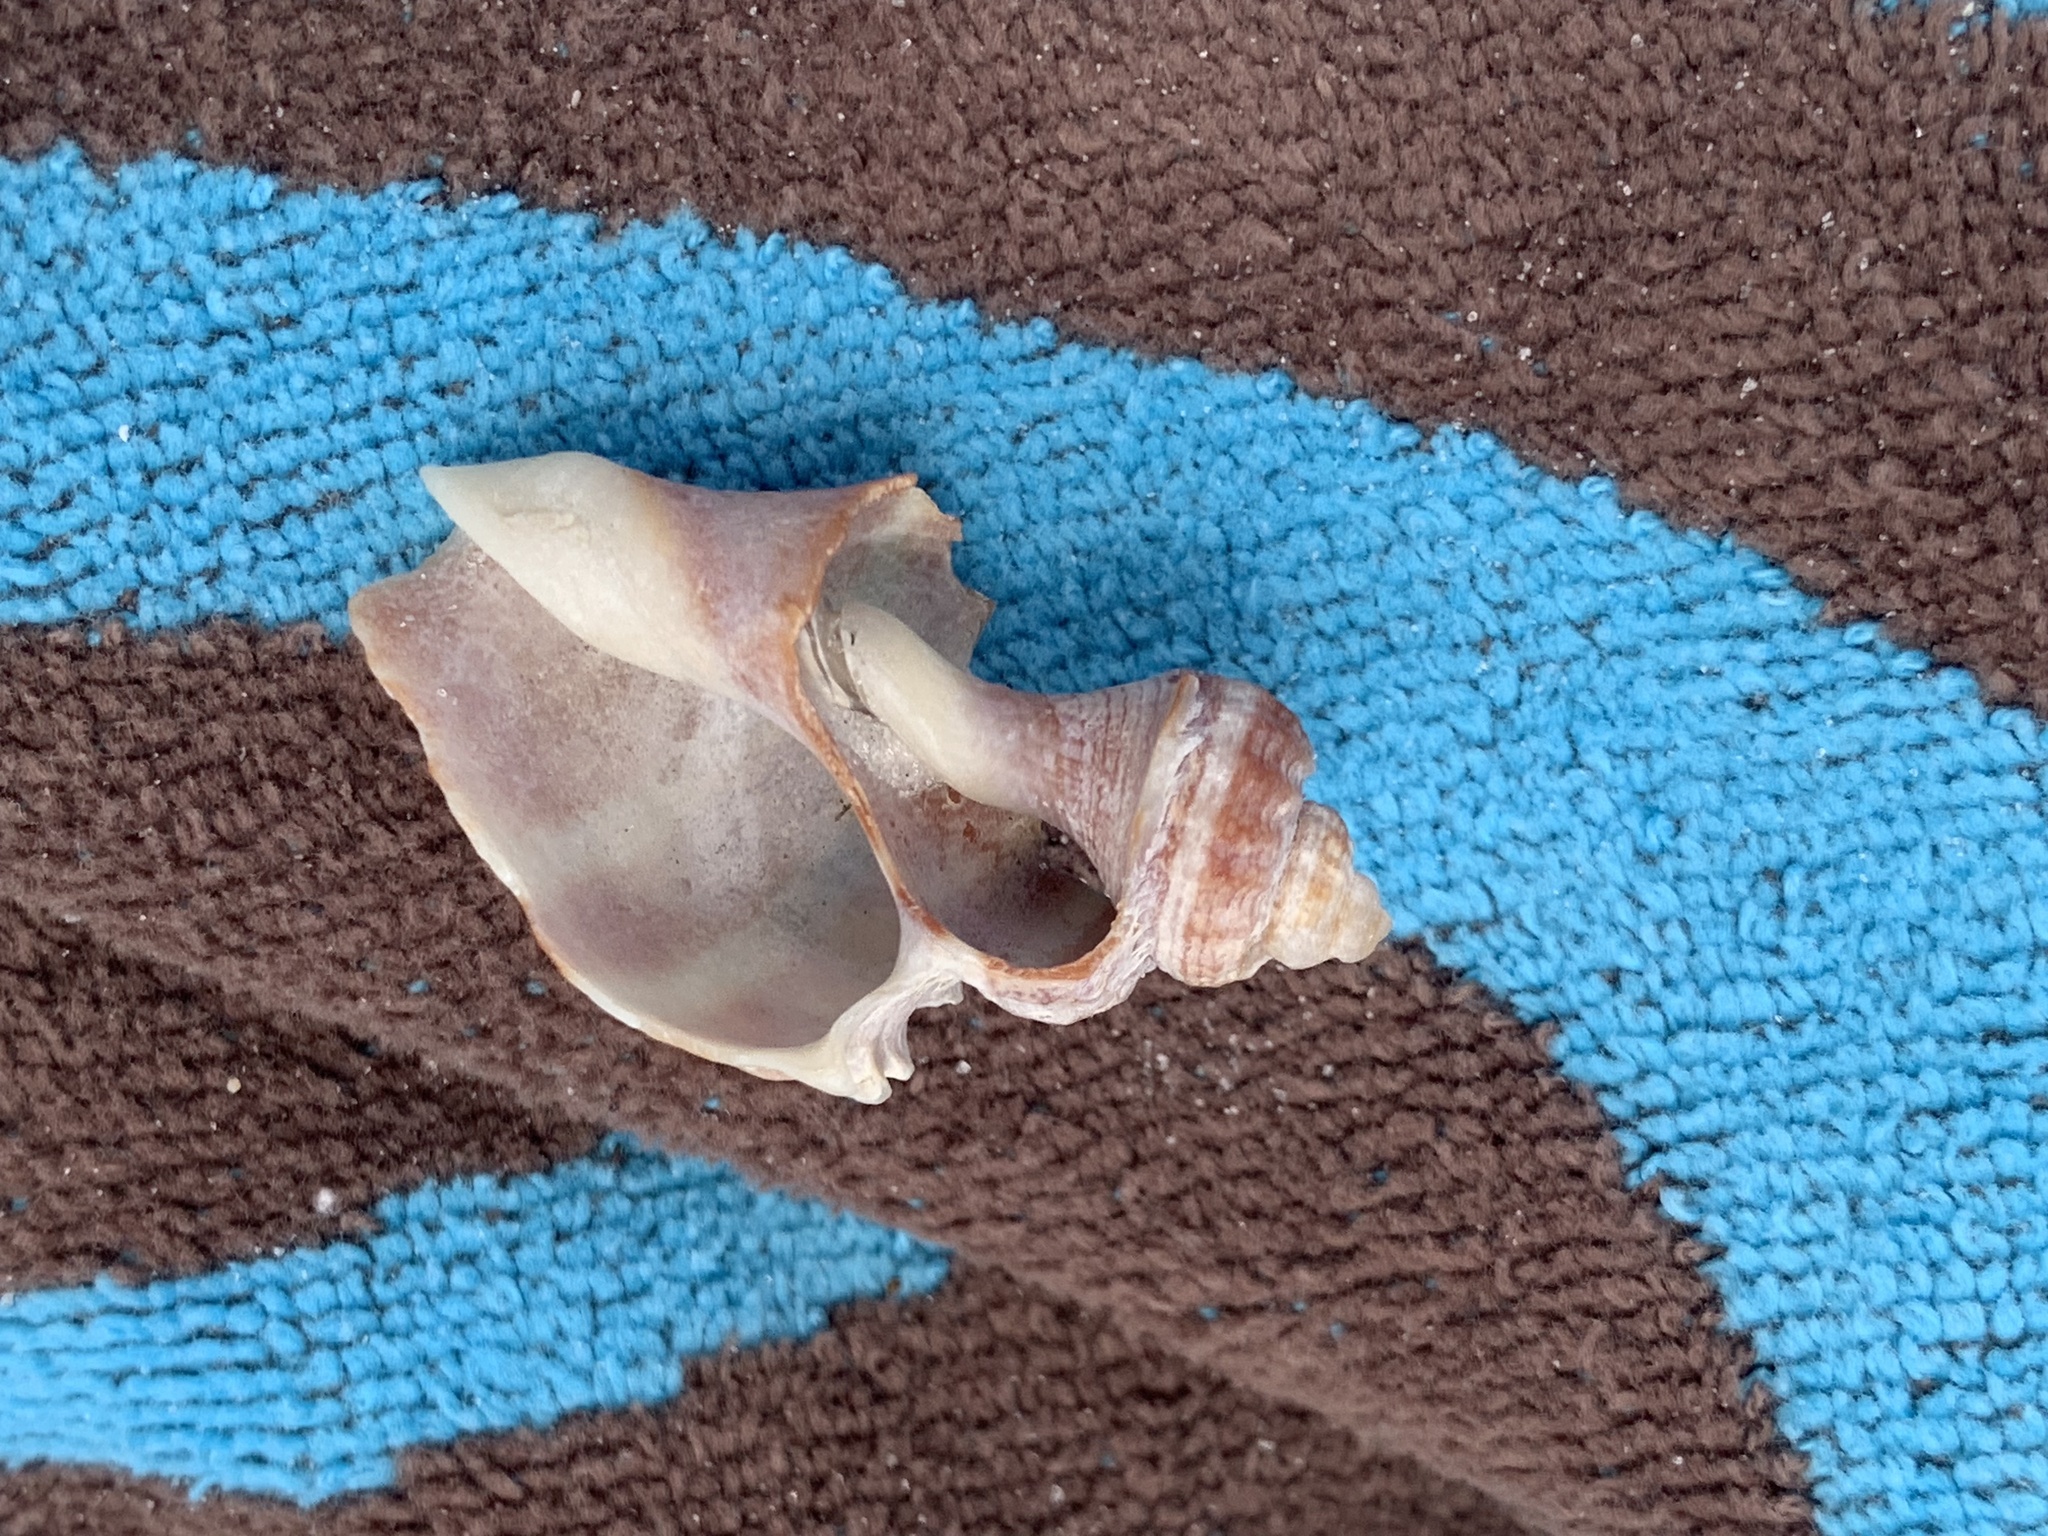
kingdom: Animalia
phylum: Mollusca
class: Gastropoda
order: Neogastropoda
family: Melongenidae
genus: Melongena
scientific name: Melongena corona
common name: American crown conch
